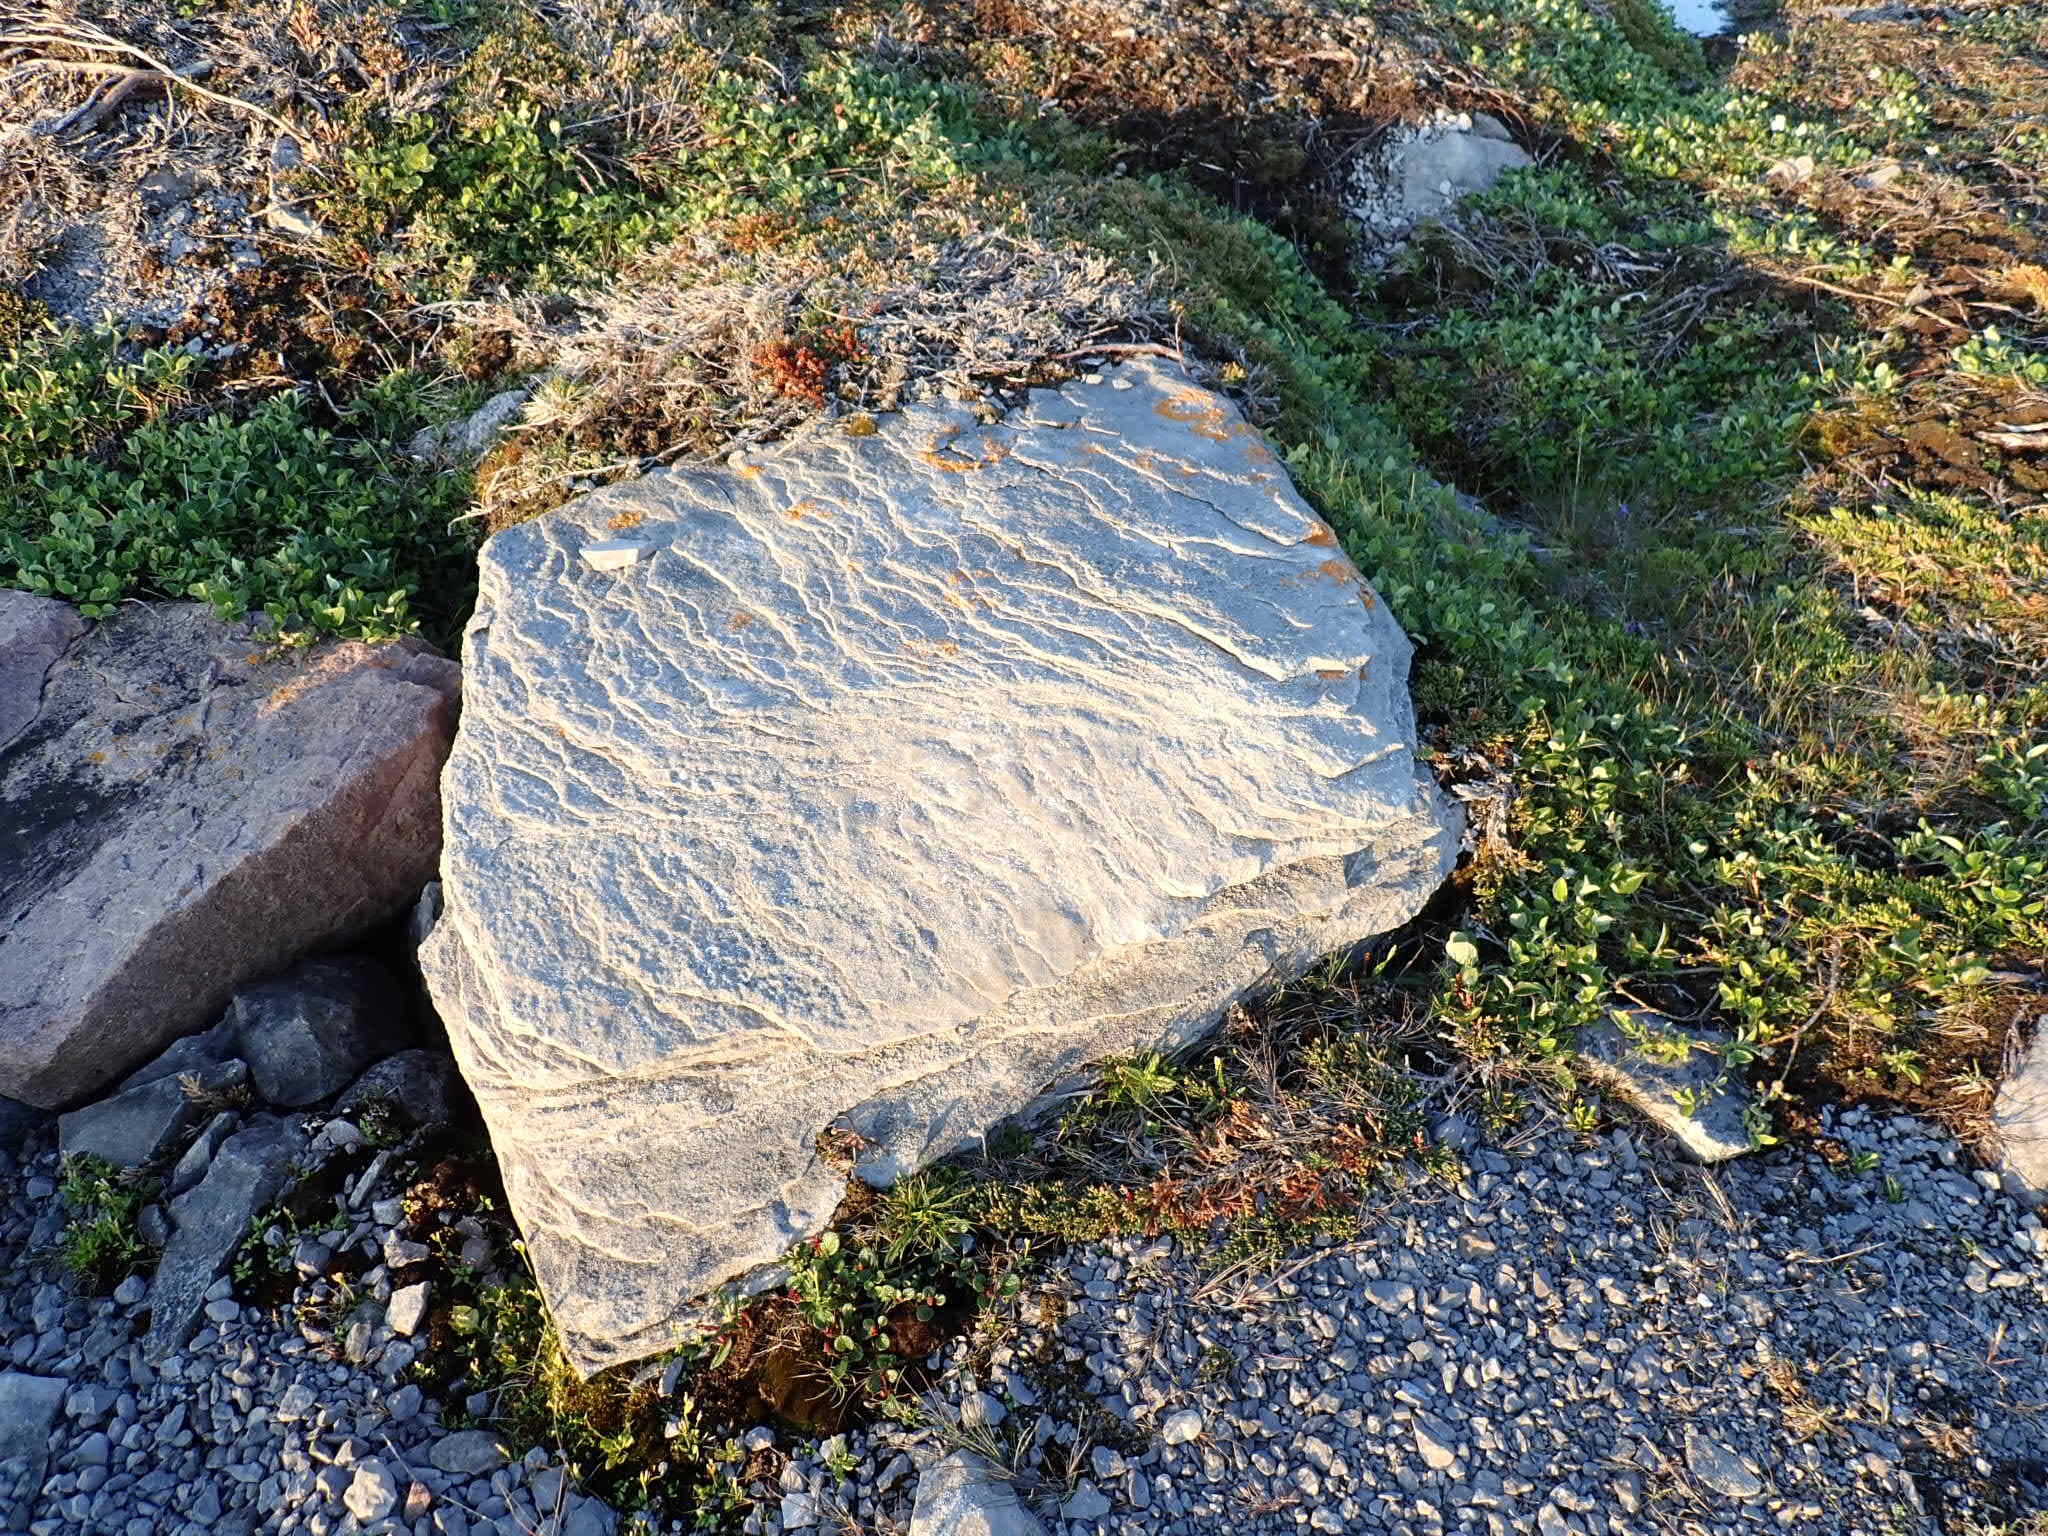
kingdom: Fungi
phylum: Ascomycota
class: Lecanoromycetes
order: Teloschistales
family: Teloschistaceae
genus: Xanthoria
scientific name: Xanthoria elegans
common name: Elegant sunburst lichen
